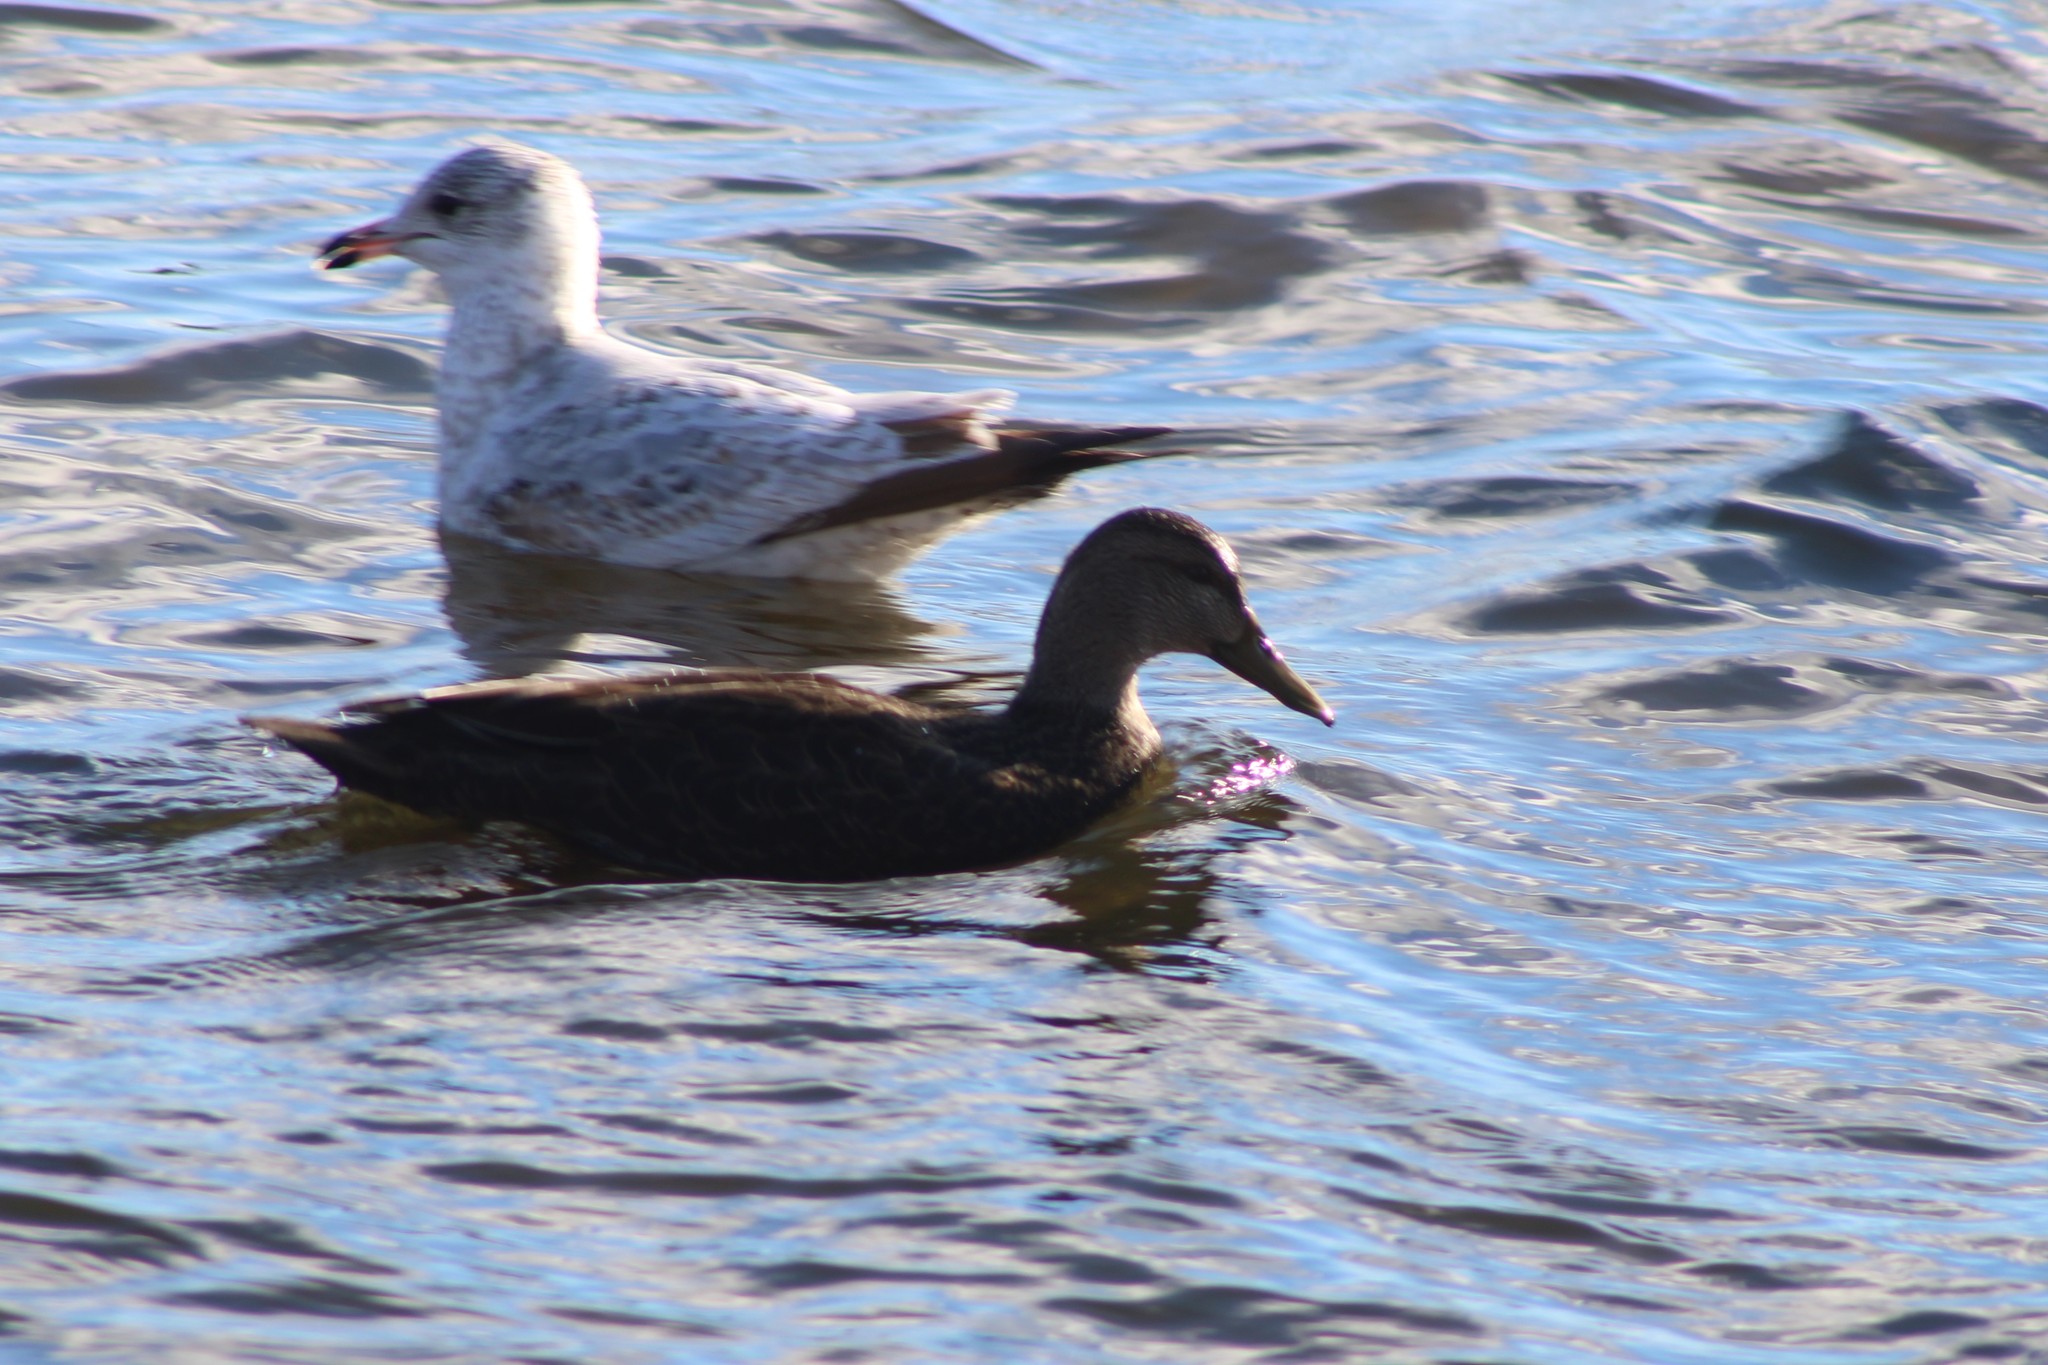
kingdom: Animalia
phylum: Chordata
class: Aves
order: Anseriformes
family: Anatidae
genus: Anas
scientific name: Anas rubripes
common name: American black duck
